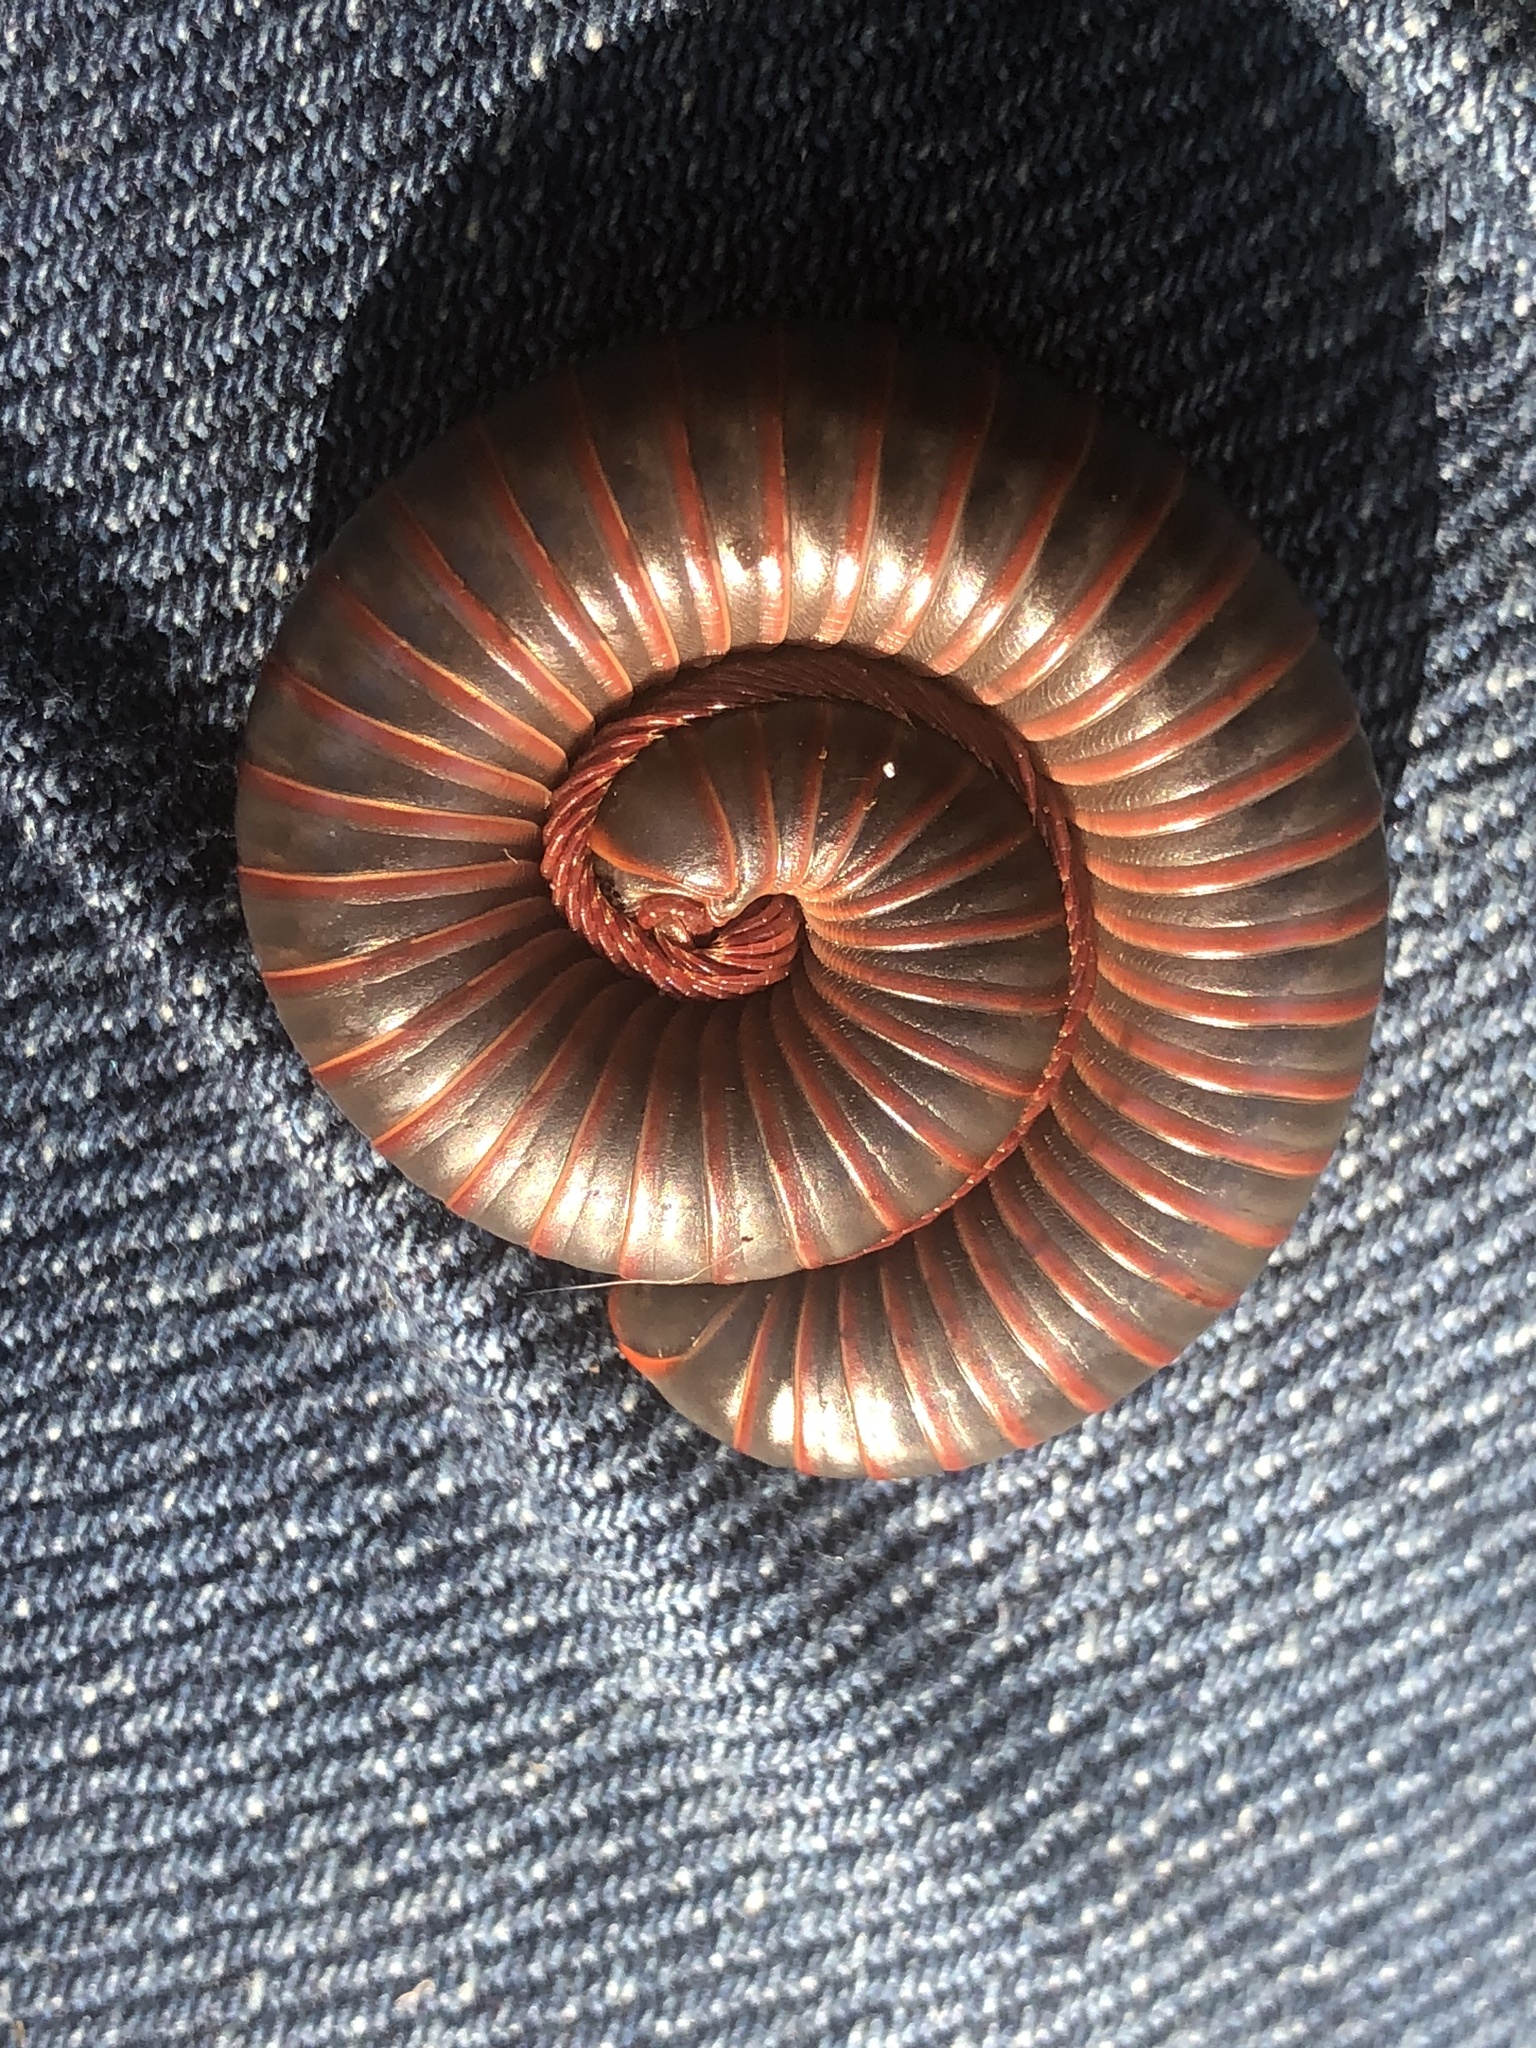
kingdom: Animalia
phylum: Arthropoda
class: Diplopoda
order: Spirobolida
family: Spirobolidae
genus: Narceus
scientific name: Narceus
